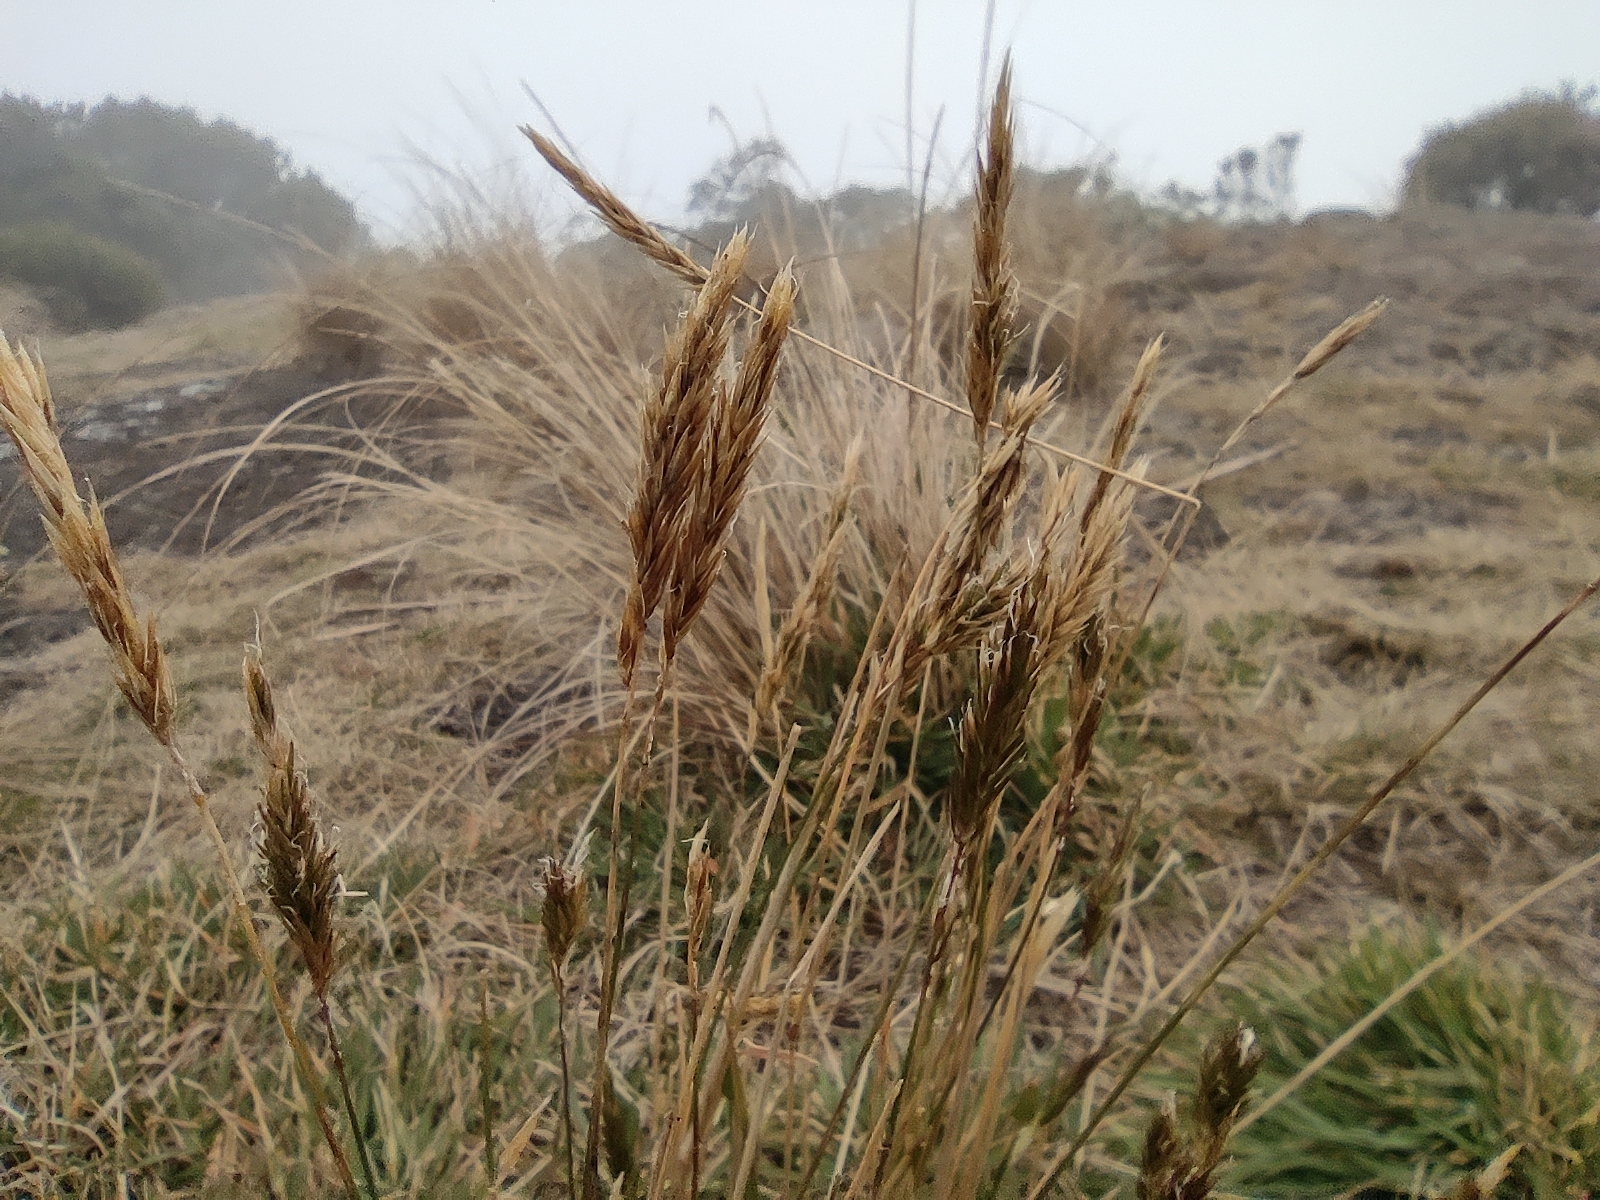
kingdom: Plantae
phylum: Tracheophyta
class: Liliopsida
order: Poales
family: Poaceae
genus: Anthoxanthum
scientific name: Anthoxanthum odoratum
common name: Sweet vernalgrass
